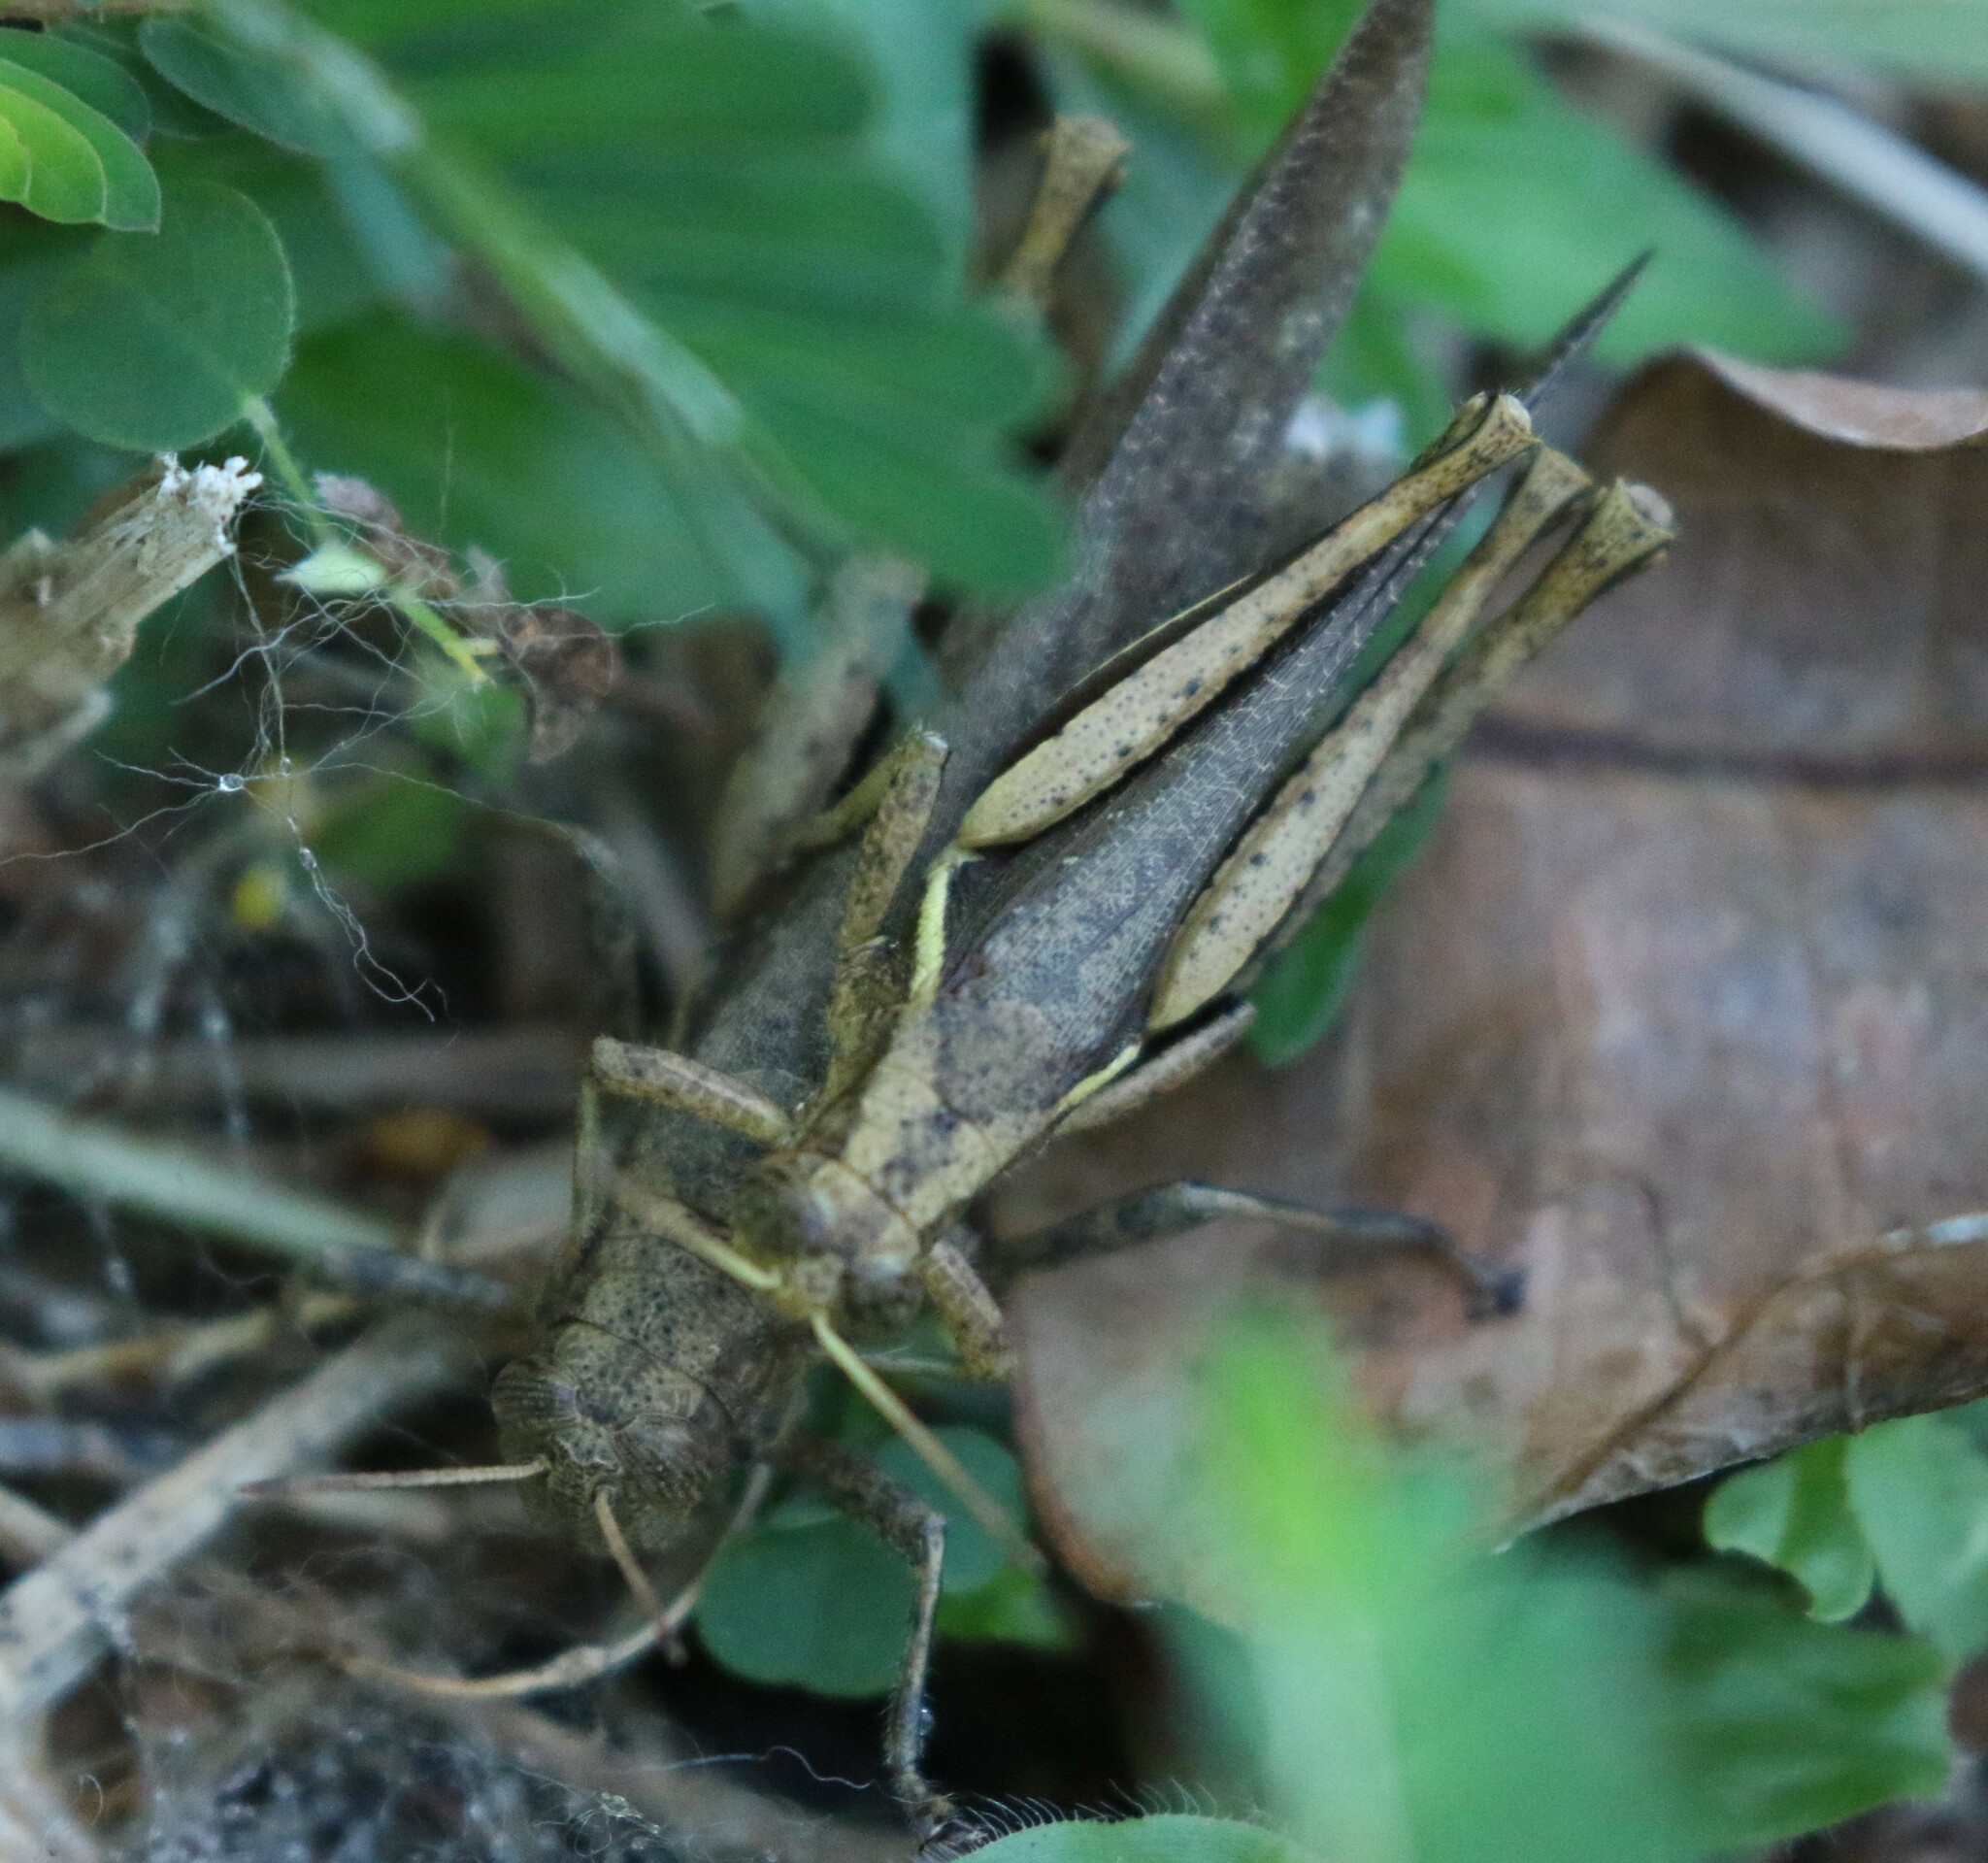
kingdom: Animalia
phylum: Arthropoda
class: Insecta
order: Orthoptera
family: Acrididae
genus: Abracris
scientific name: Abracris flavolineata
